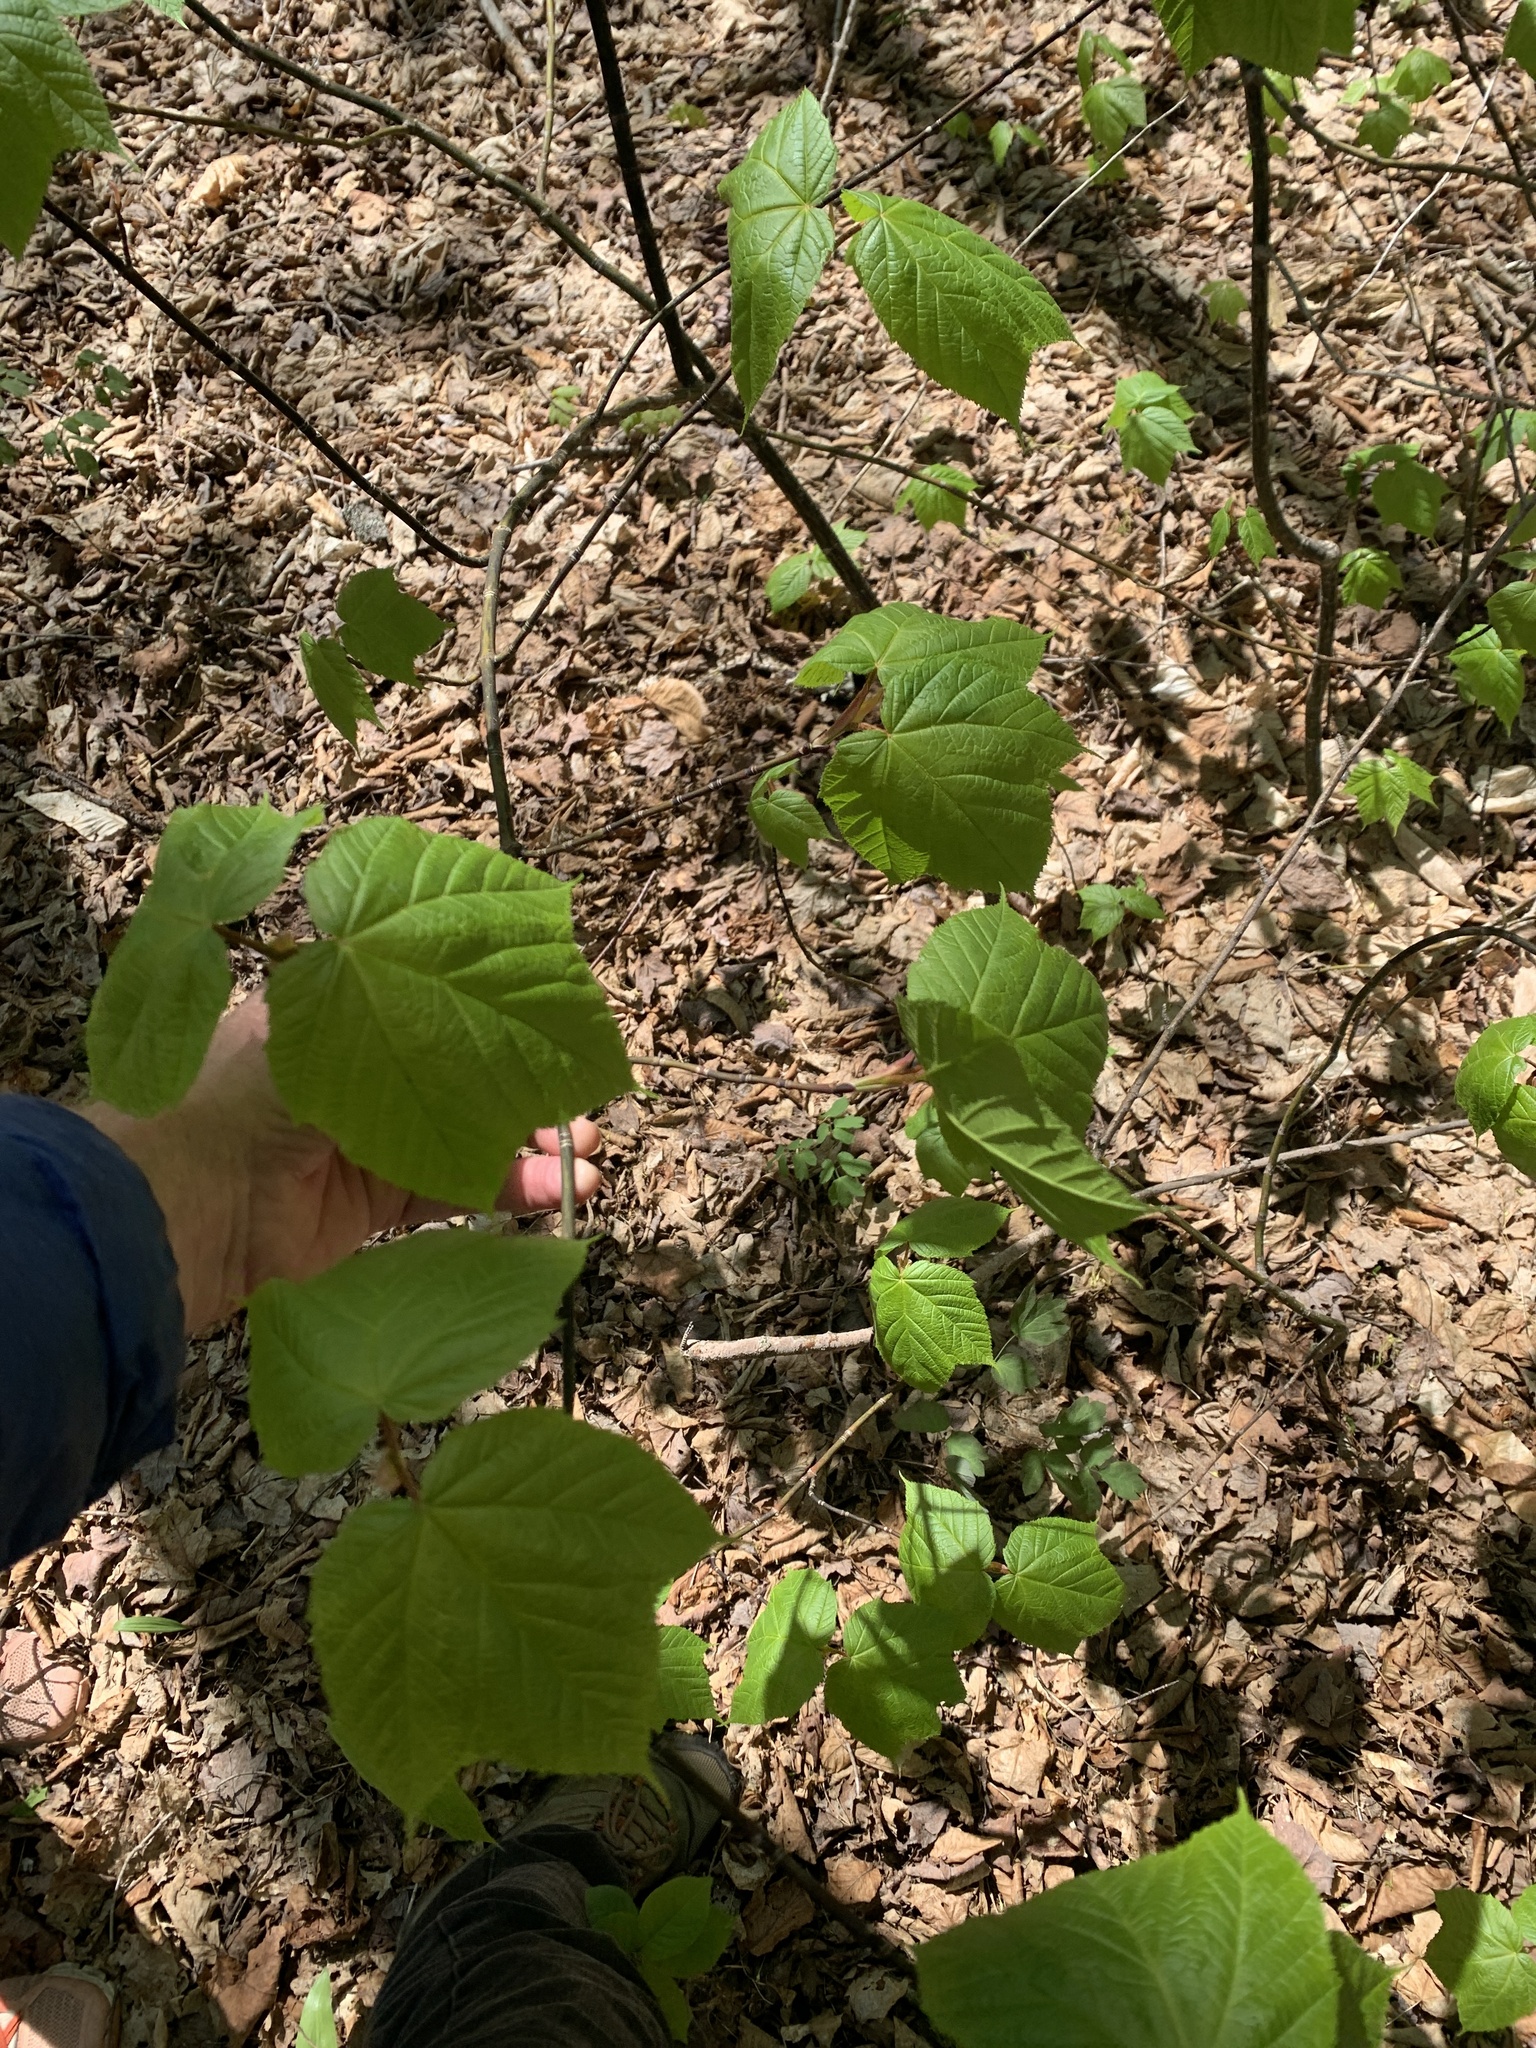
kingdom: Plantae
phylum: Tracheophyta
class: Magnoliopsida
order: Sapindales
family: Sapindaceae
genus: Acer
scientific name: Acer pensylvanicum
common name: Moosewood
